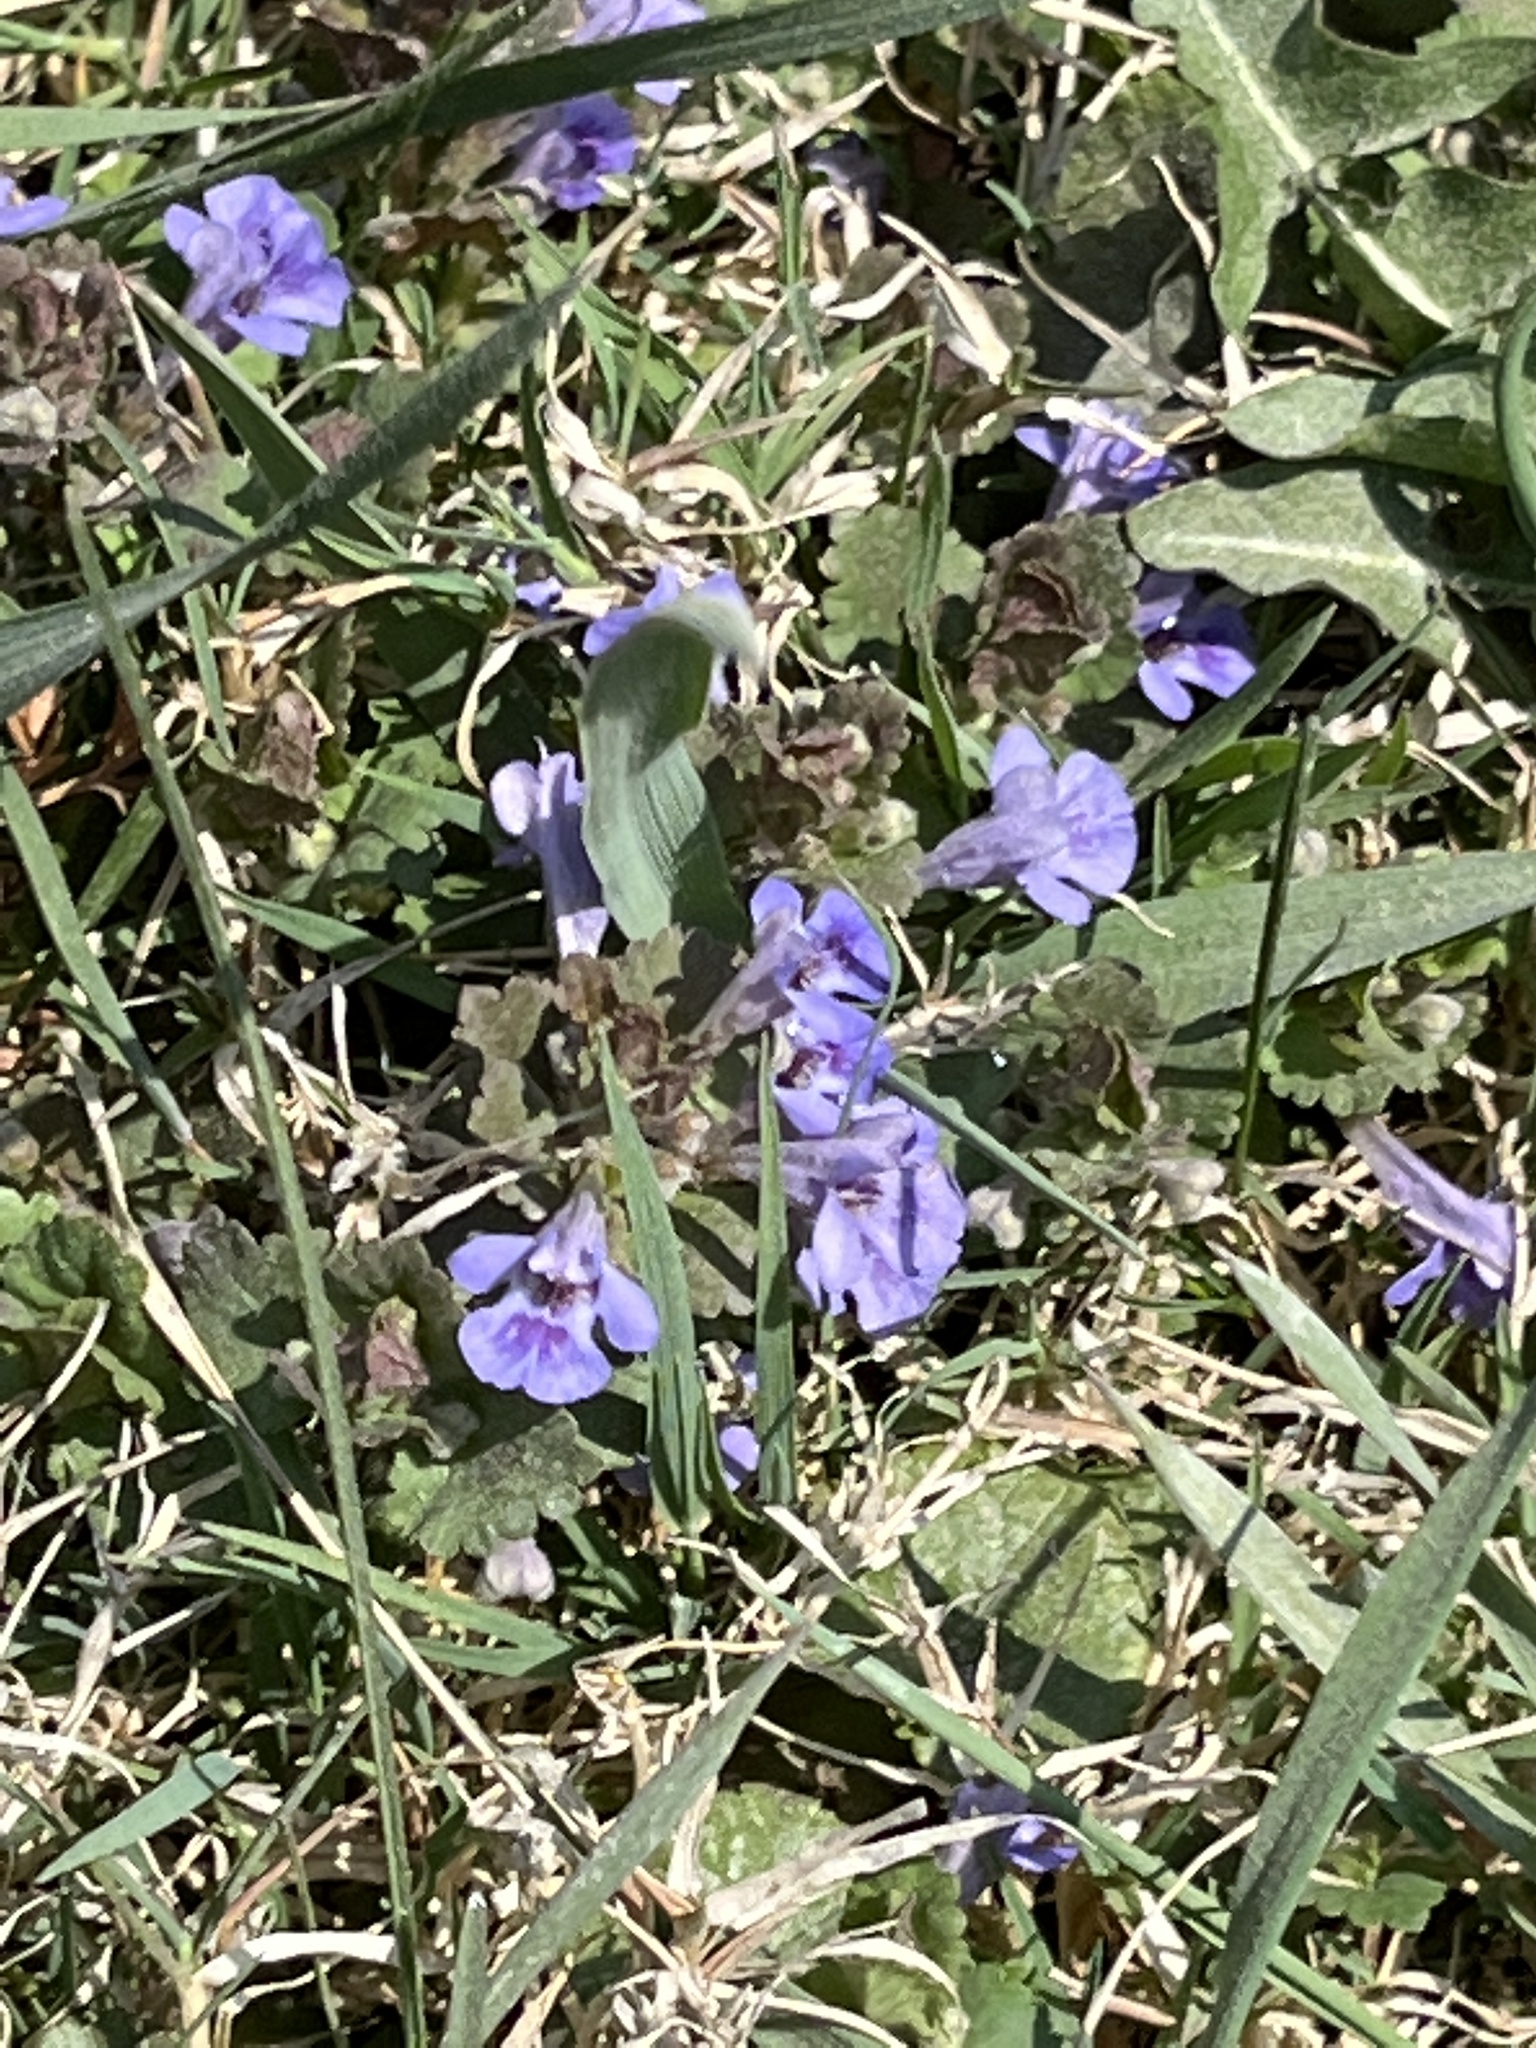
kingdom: Plantae
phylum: Tracheophyta
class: Magnoliopsida
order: Lamiales
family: Lamiaceae
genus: Glechoma
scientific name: Glechoma hederacea
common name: Ground ivy
